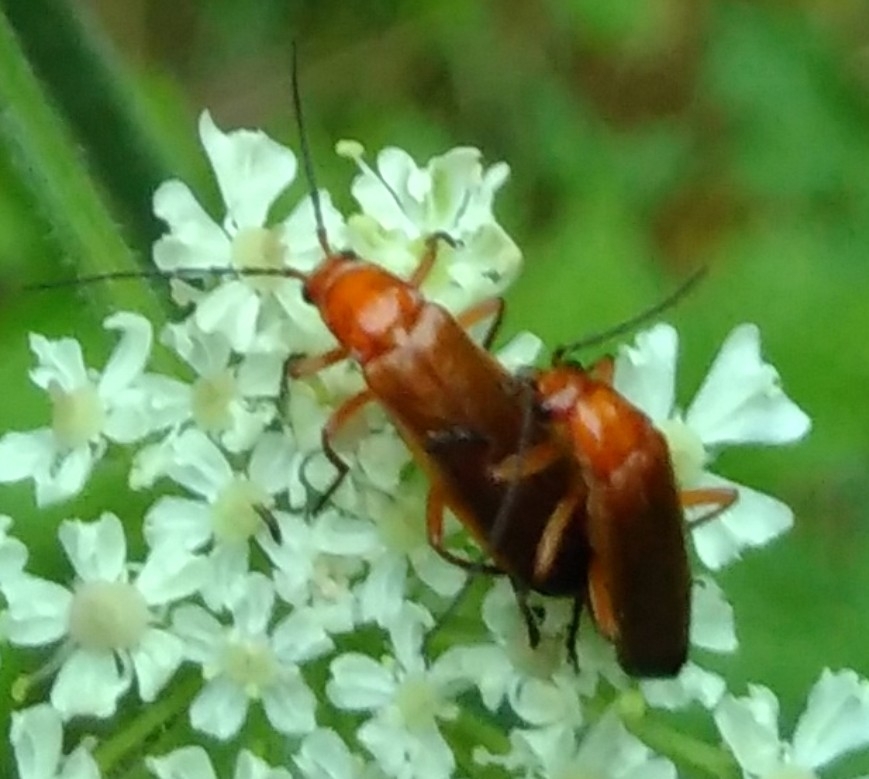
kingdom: Animalia
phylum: Arthropoda
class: Insecta
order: Coleoptera
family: Cantharidae
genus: Rhagonycha
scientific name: Rhagonycha fulva
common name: Common red soldier beetle
